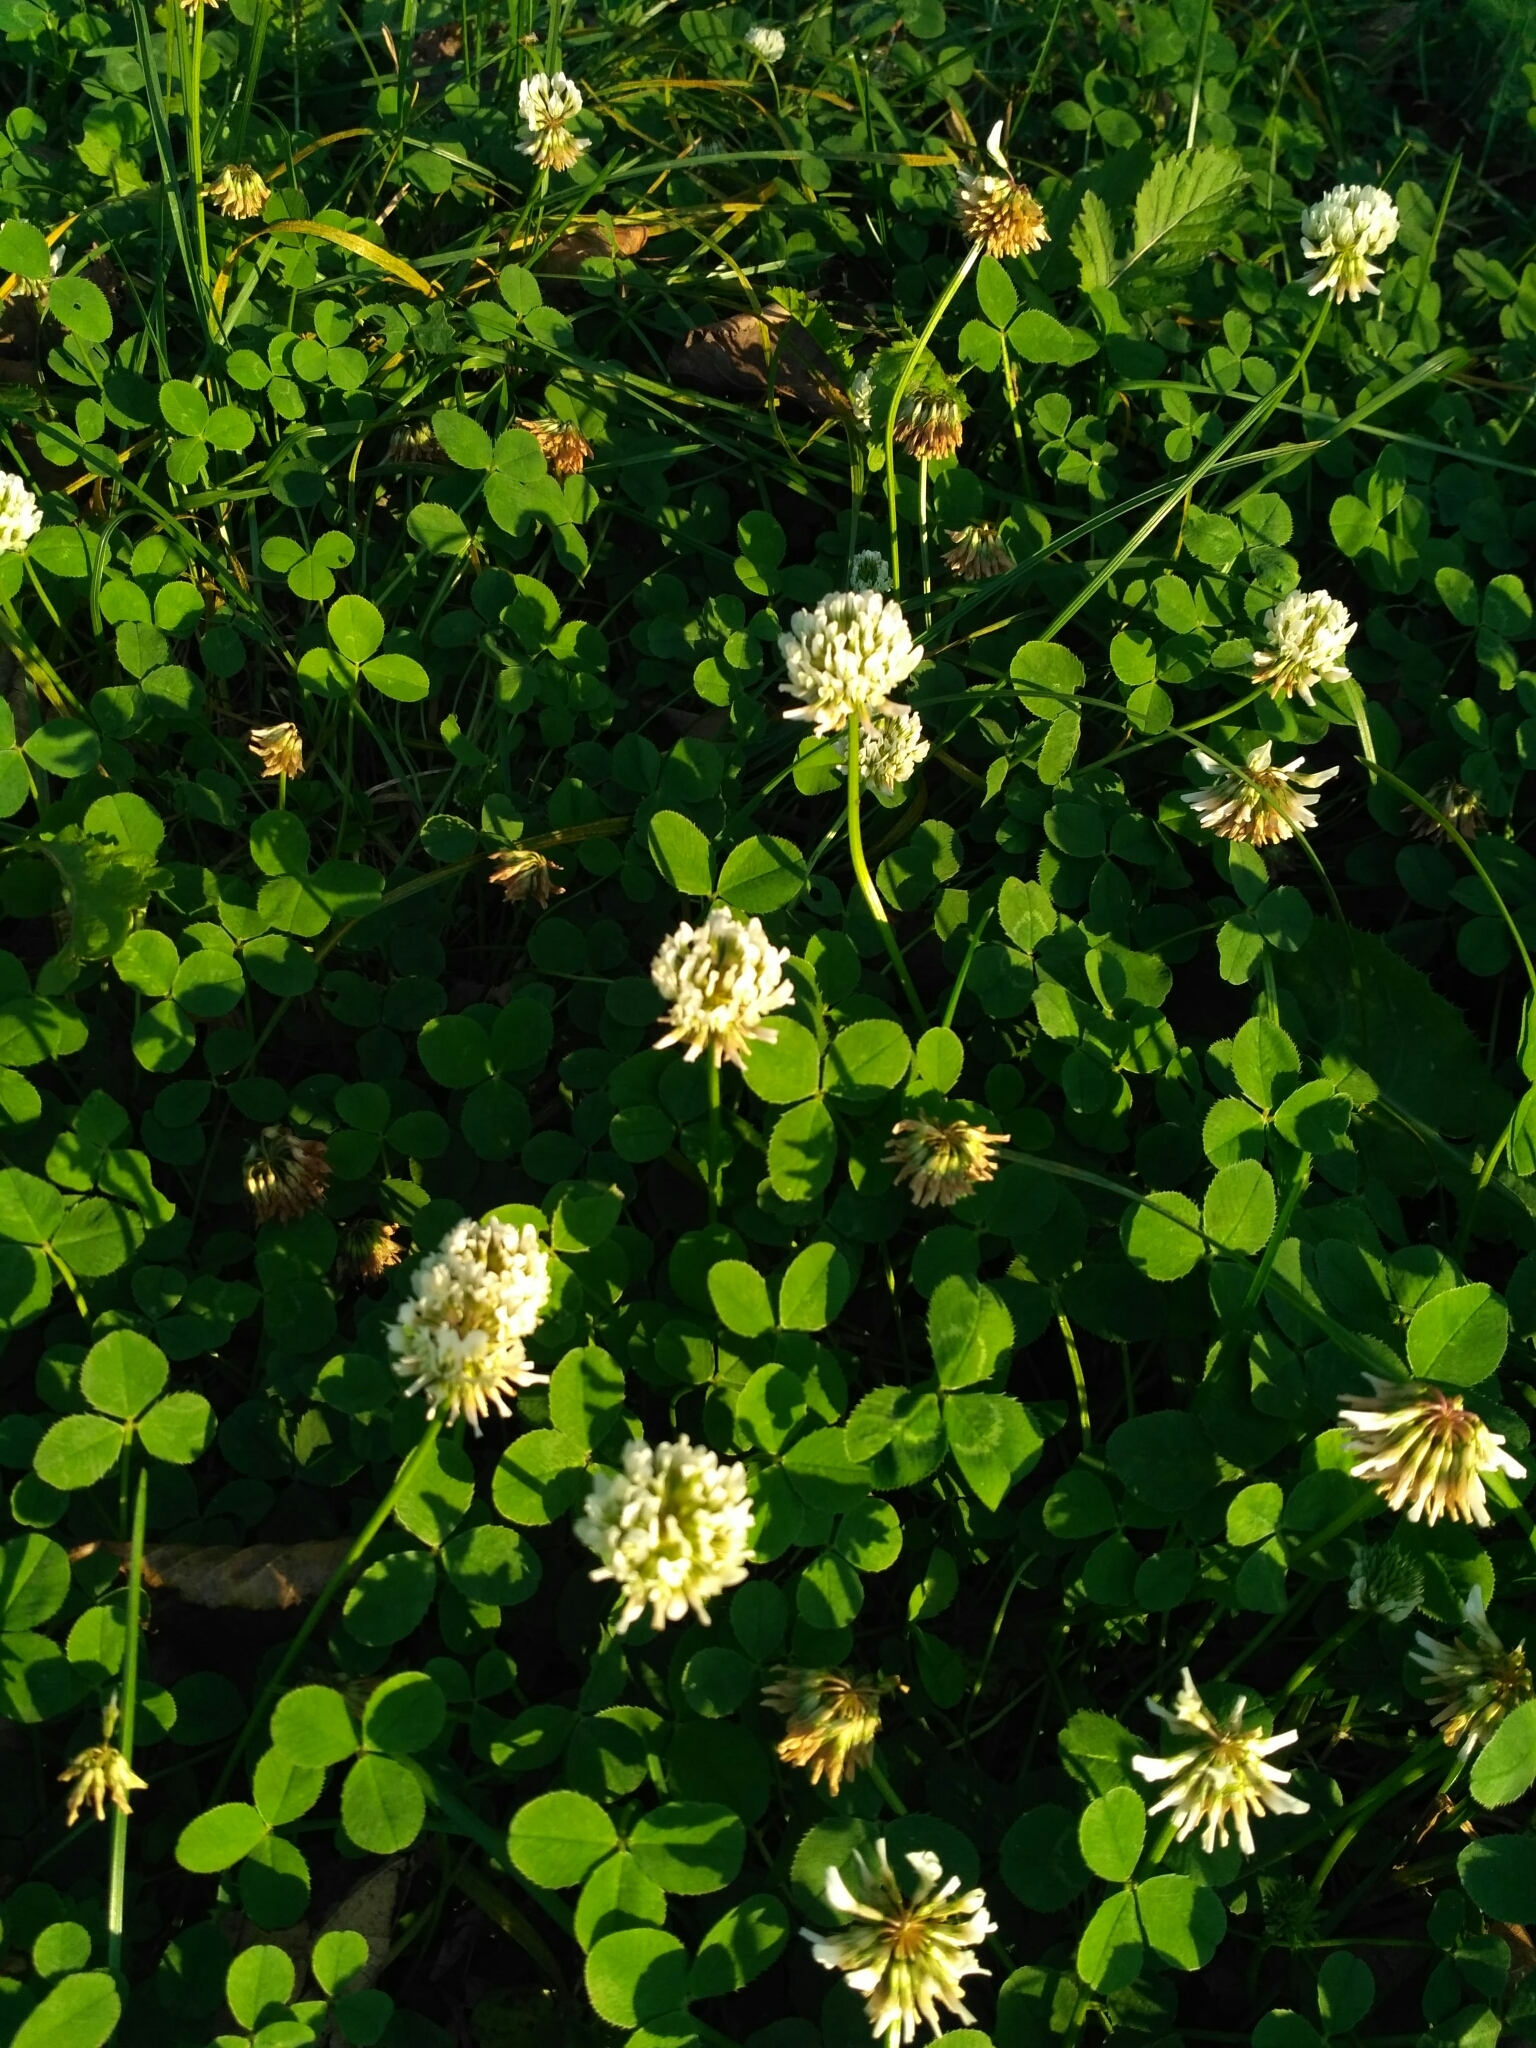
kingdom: Plantae
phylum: Tracheophyta
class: Magnoliopsida
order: Fabales
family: Fabaceae
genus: Trifolium
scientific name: Trifolium repens
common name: White clover
